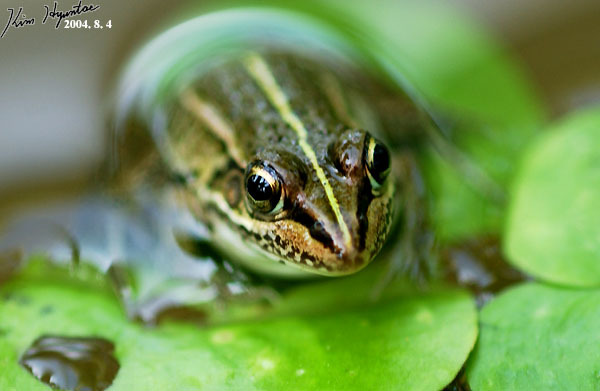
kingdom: Animalia
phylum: Chordata
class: Amphibia
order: Anura
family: Ranidae
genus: Pelophylax
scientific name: Pelophylax nigromaculatus
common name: Black-spotted pond frog
